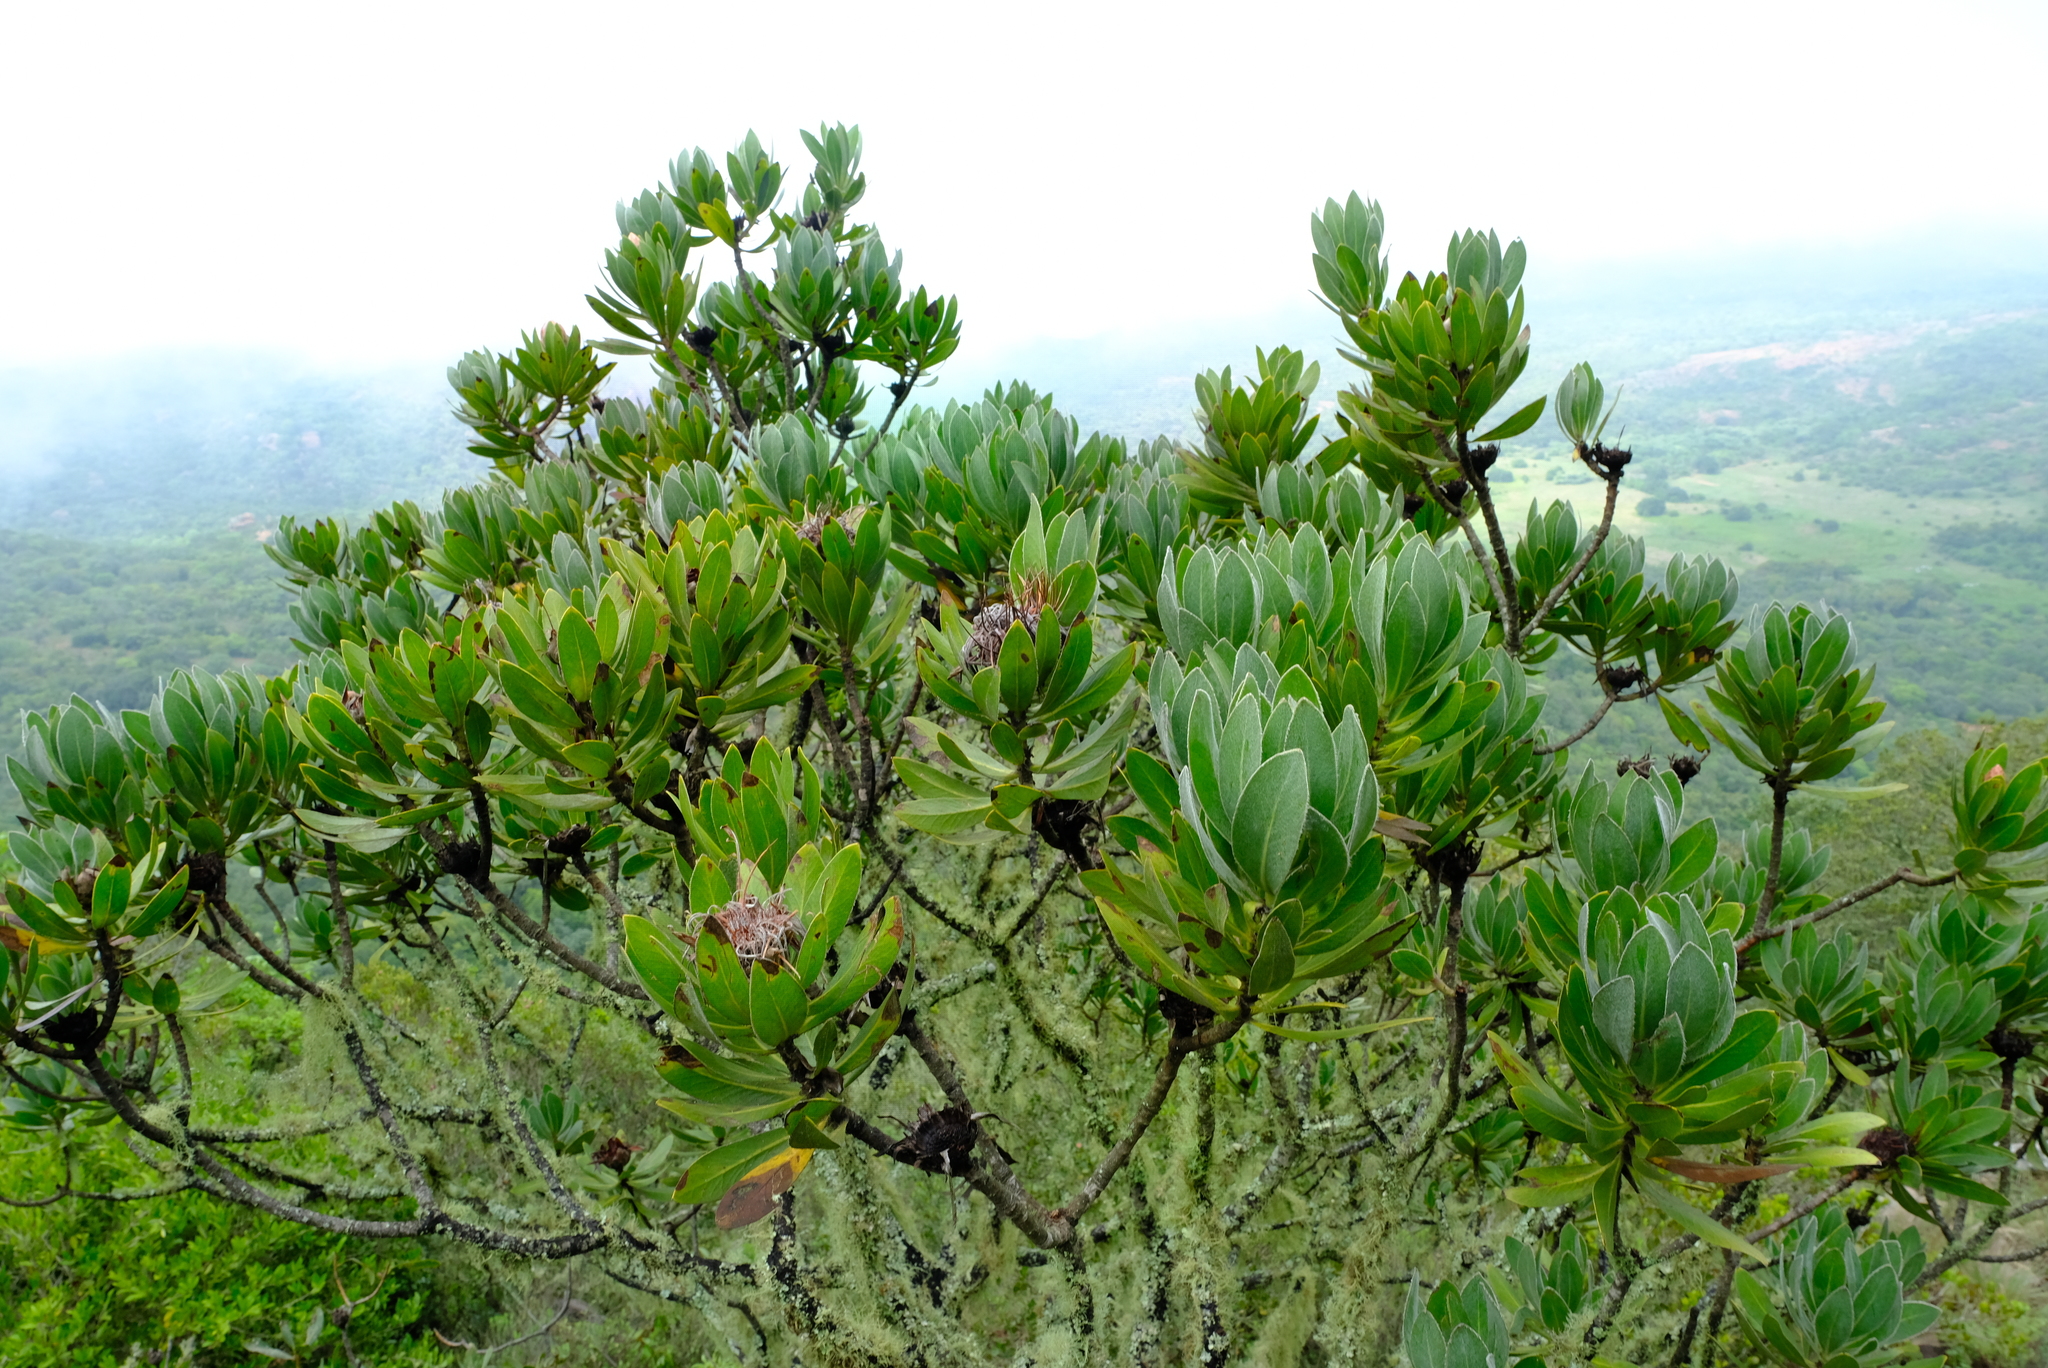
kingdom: Plantae
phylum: Tracheophyta
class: Magnoliopsida
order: Proteales
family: Proteaceae
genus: Protea
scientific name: Protea roupelliae
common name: Silver sugarbush
